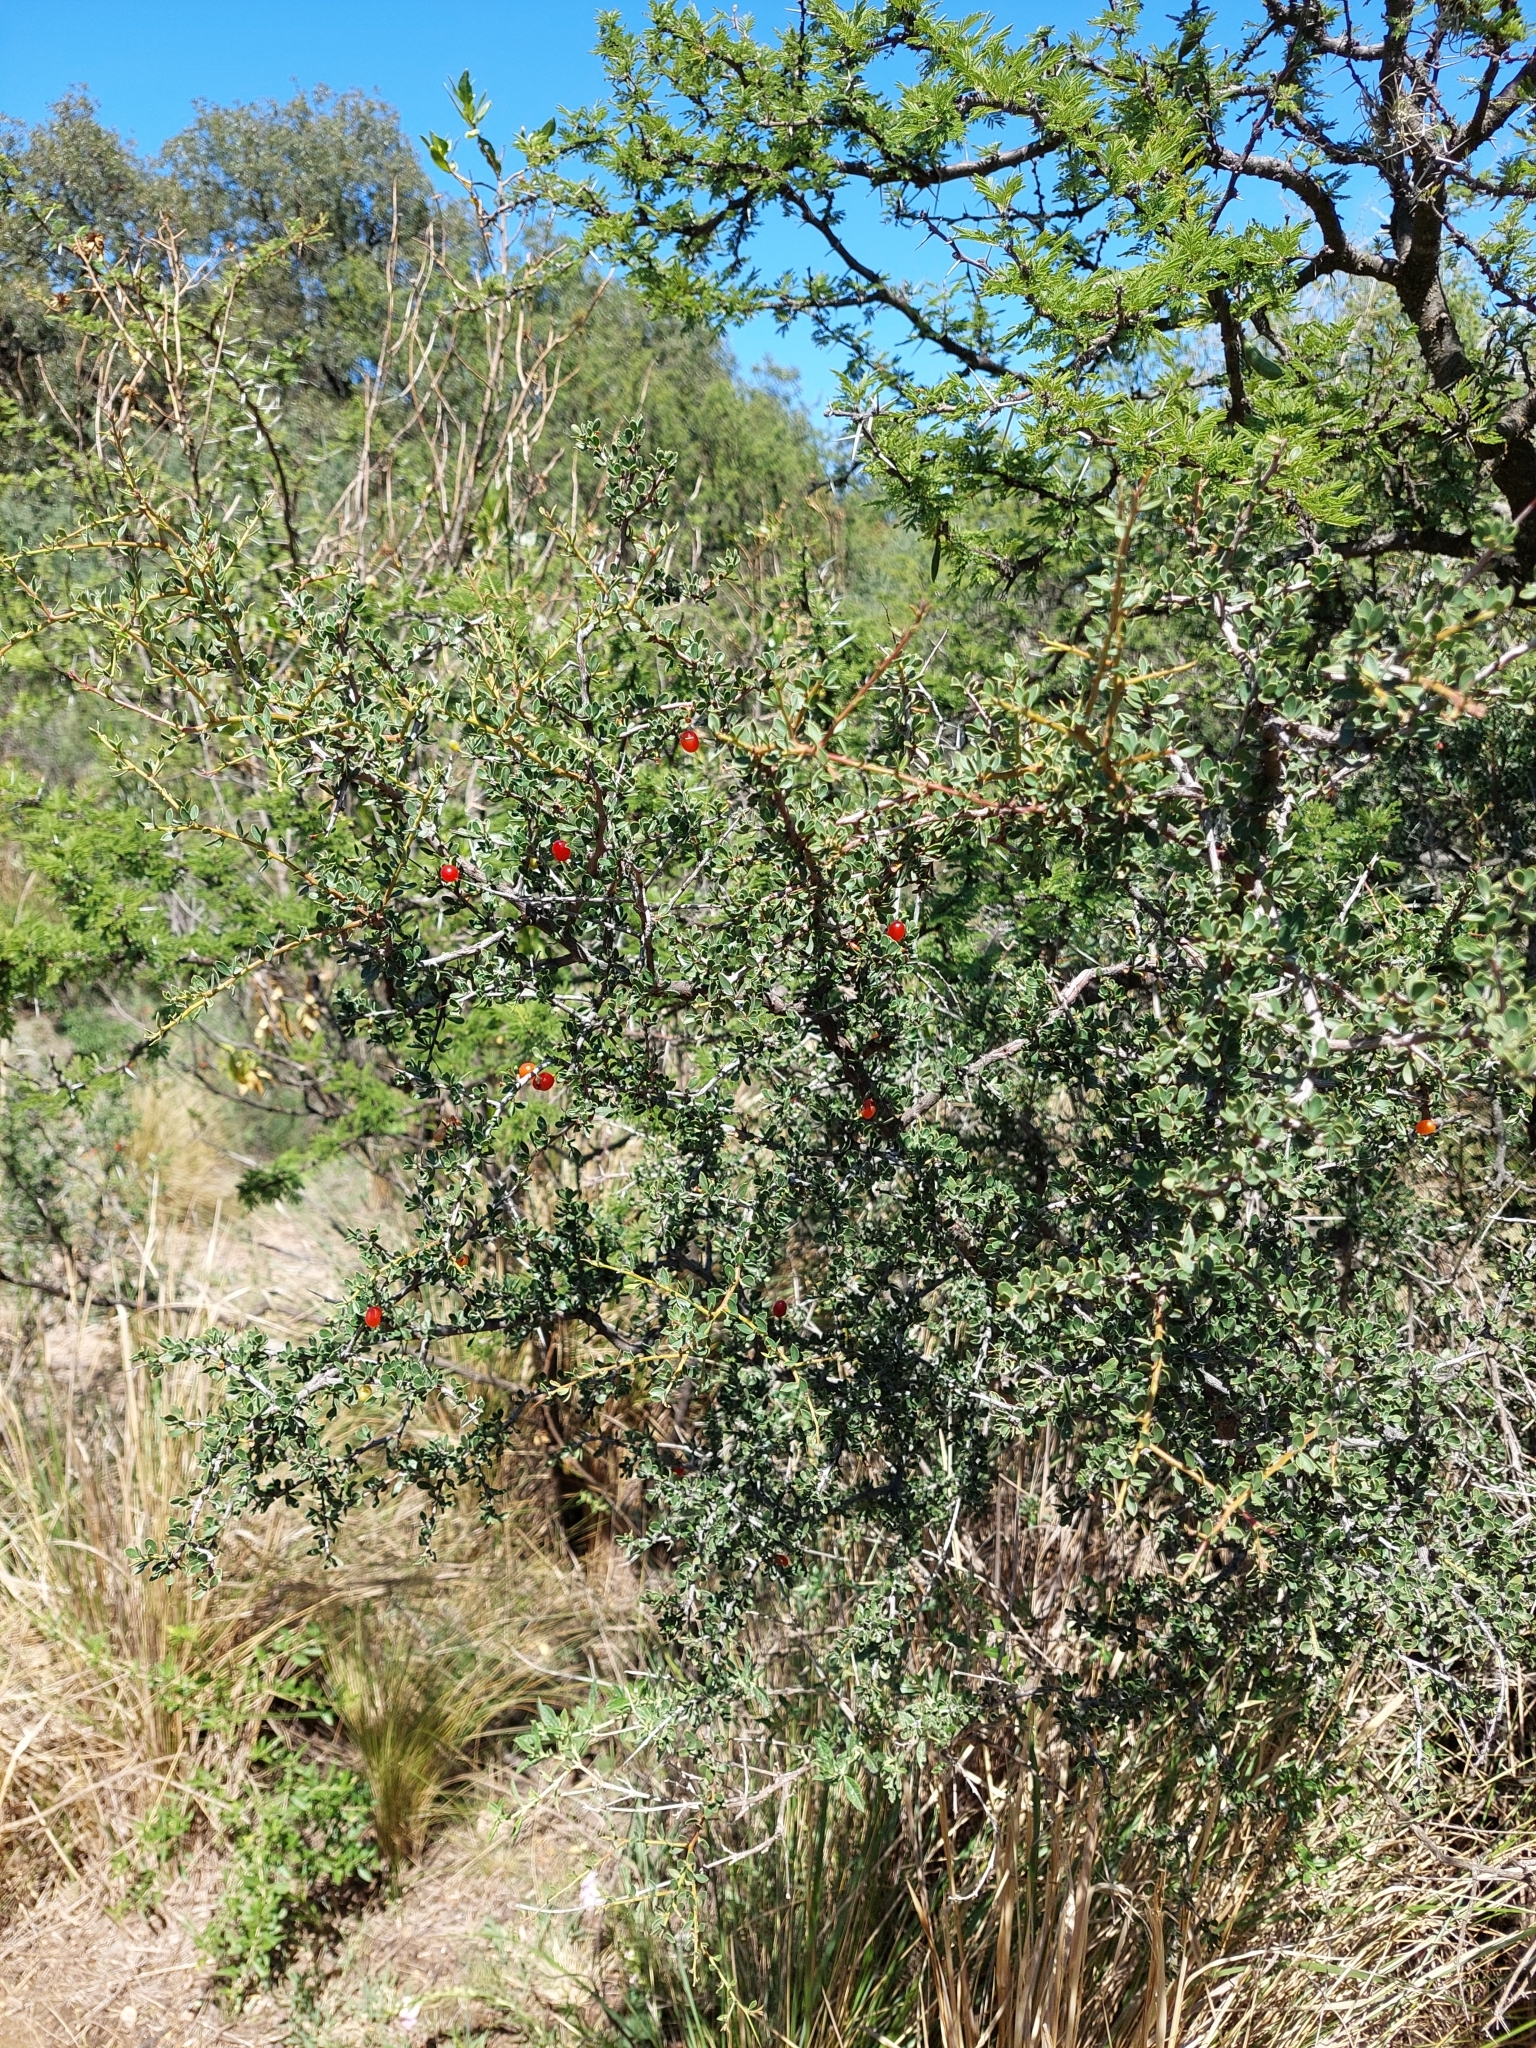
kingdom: Plantae
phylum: Tracheophyta
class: Magnoliopsida
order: Rosales
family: Rhamnaceae
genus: Condalia
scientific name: Condalia microphylla
